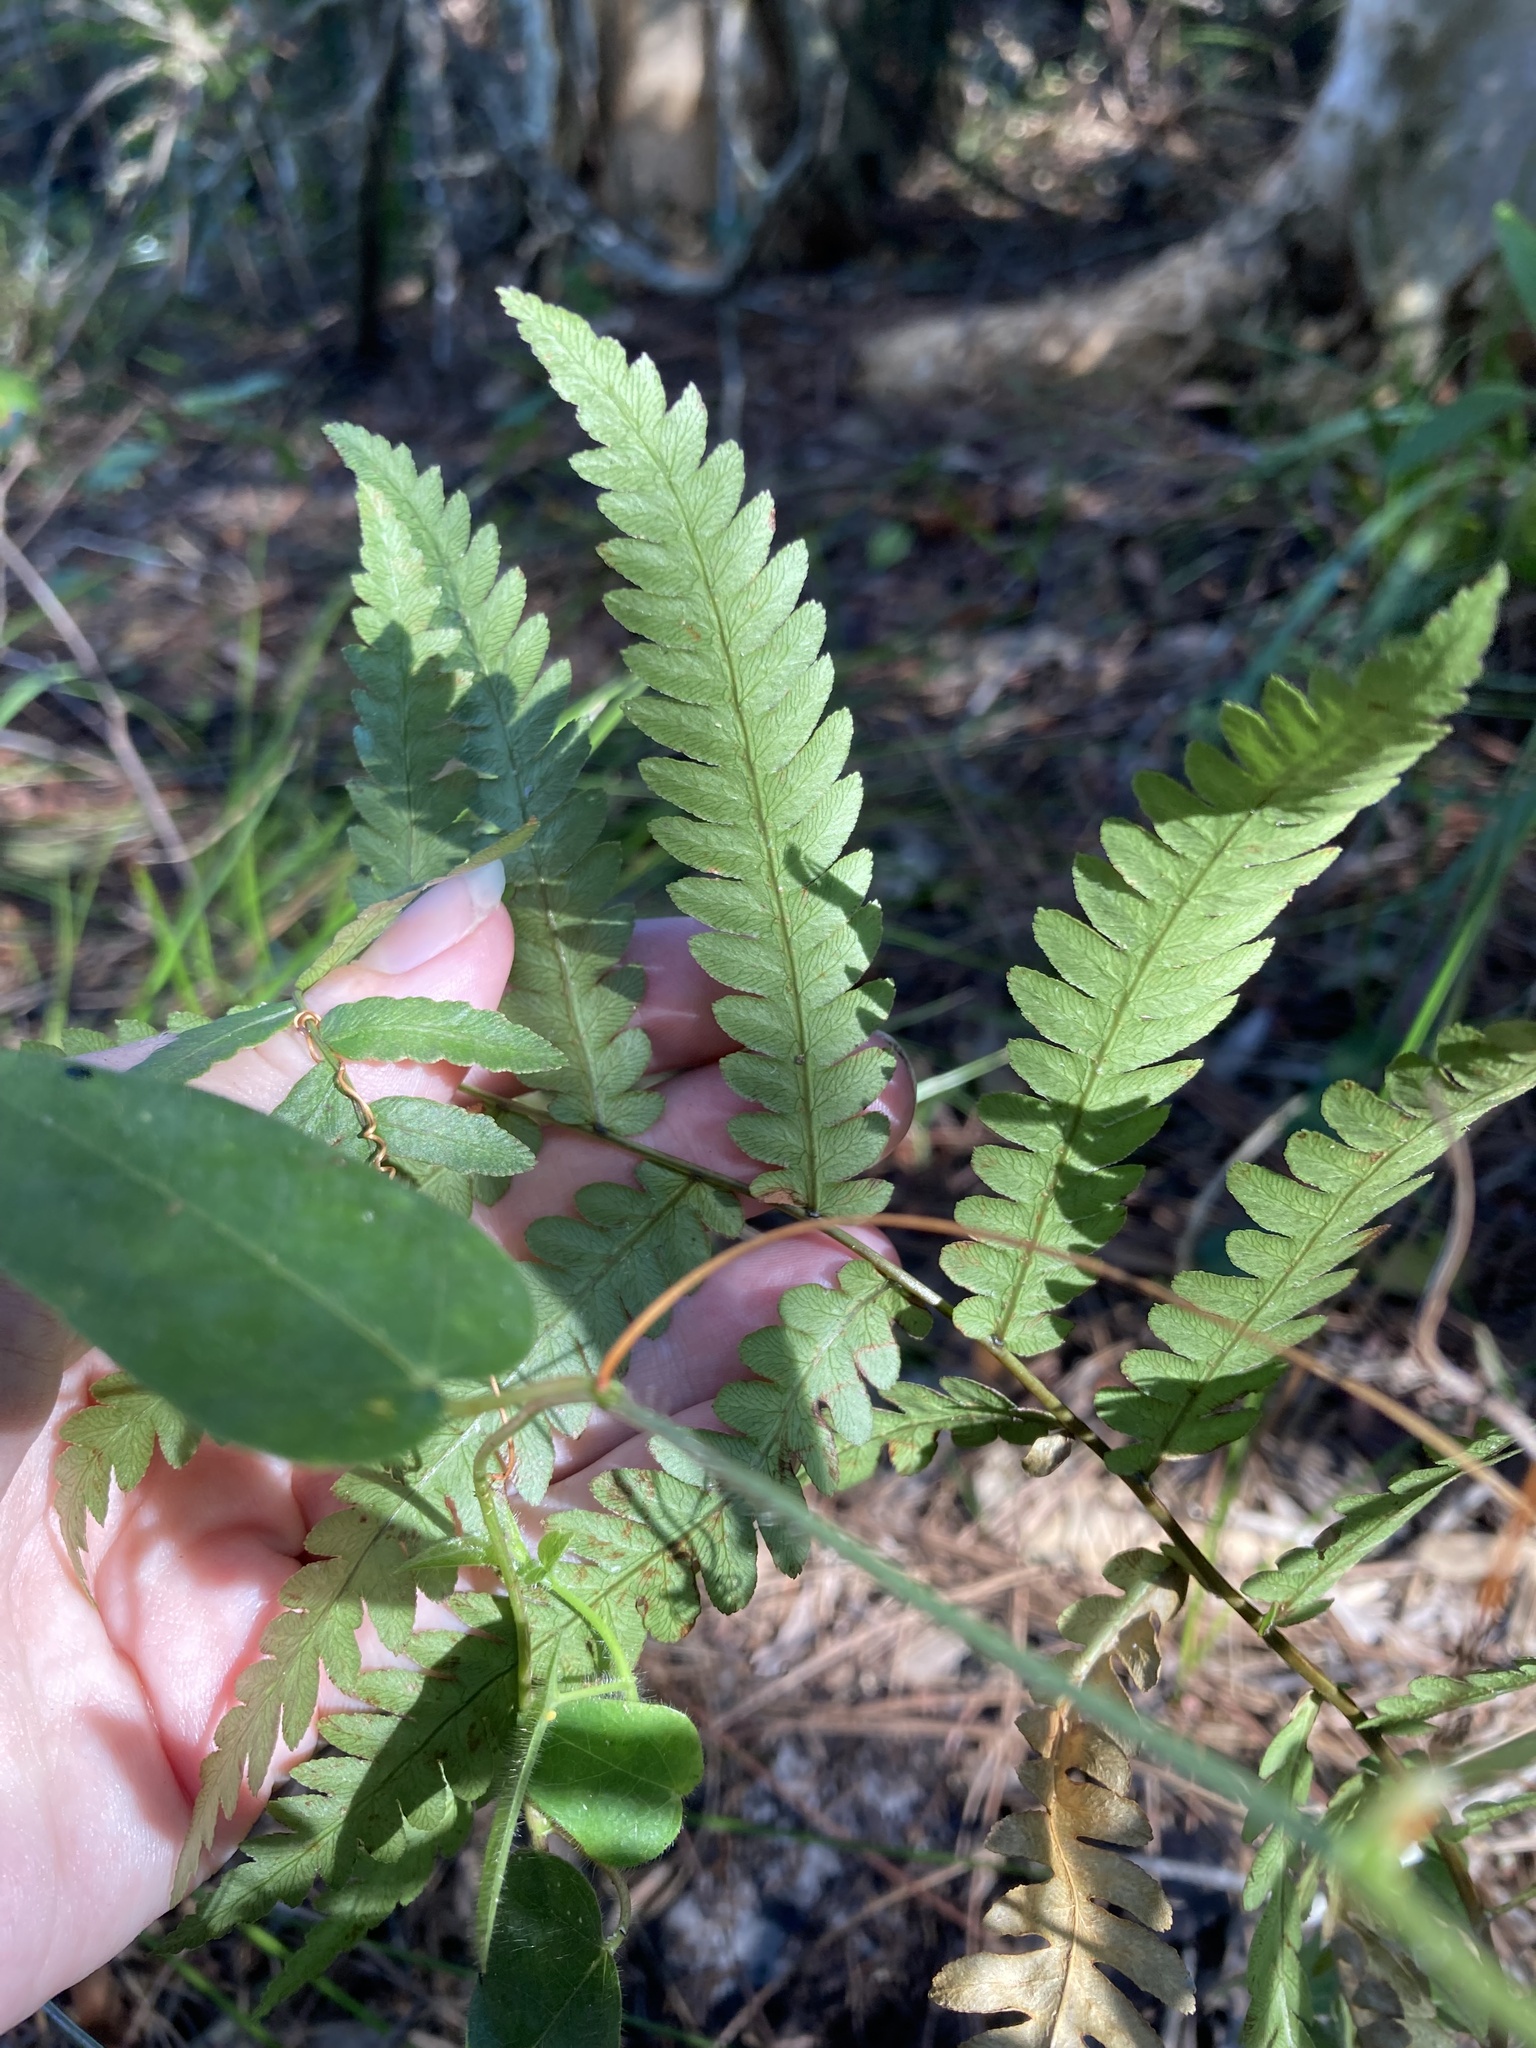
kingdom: Plantae
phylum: Tracheophyta
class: Polypodiopsida
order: Polypodiales
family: Blechnaceae
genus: Anchistea
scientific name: Anchistea virginica
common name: Virginia chain fern
